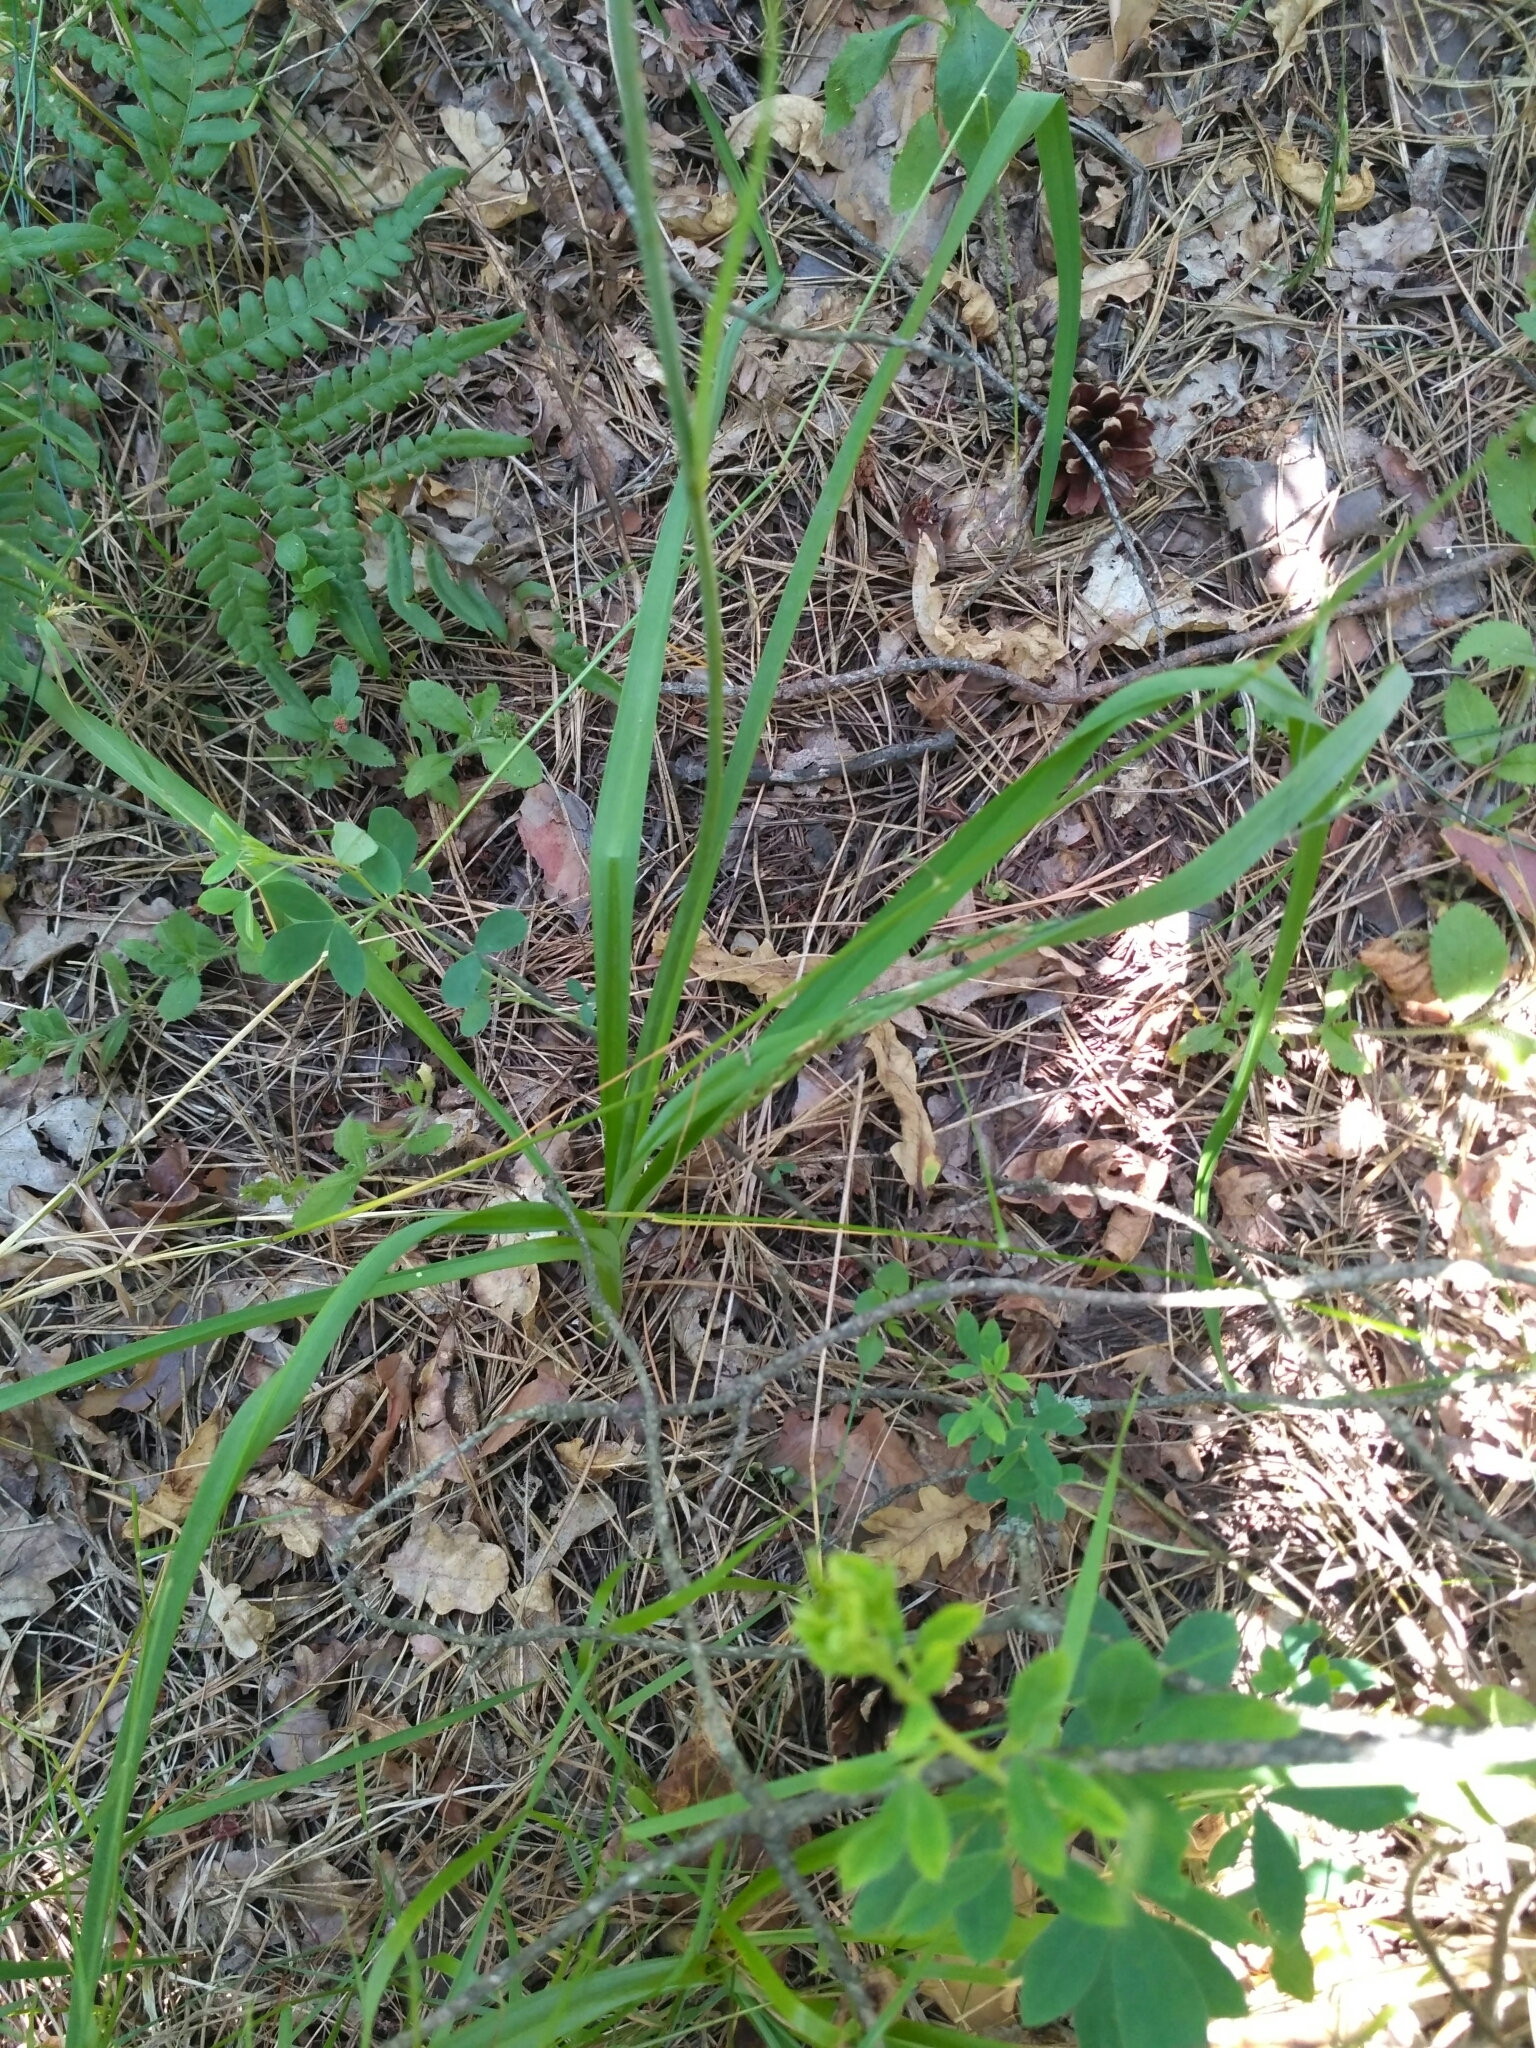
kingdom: Plantae
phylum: Tracheophyta
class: Liliopsida
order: Asparagales
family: Asparagaceae
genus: Anthericum
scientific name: Anthericum ramosum
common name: Branched st. bernard's-lily
